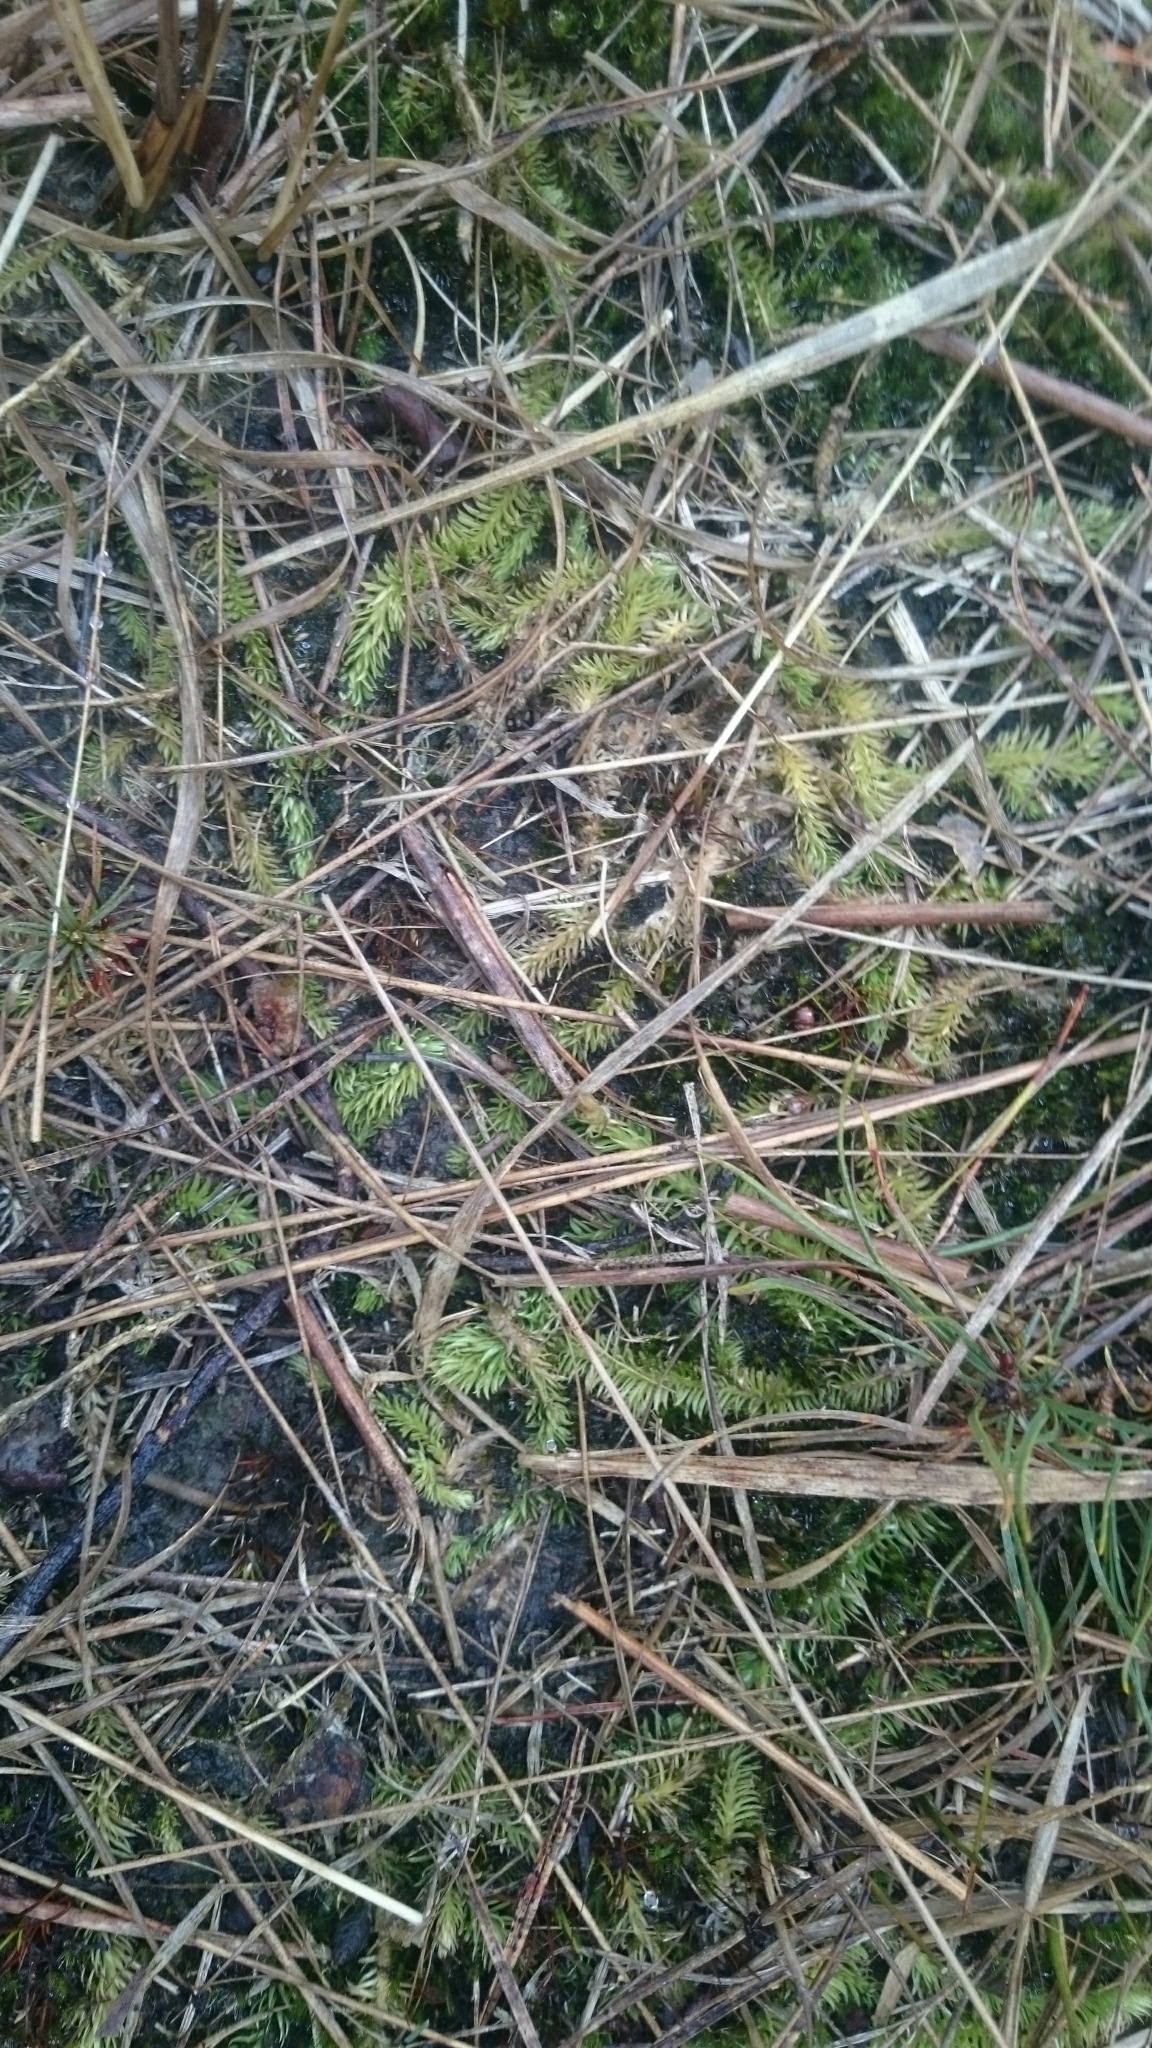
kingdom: Plantae
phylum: Tracheophyta
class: Lycopodiopsida
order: Lycopodiales
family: Lycopodiaceae
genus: Lycopodiella
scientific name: Lycopodiella inundata
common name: Marsh clubmoss
